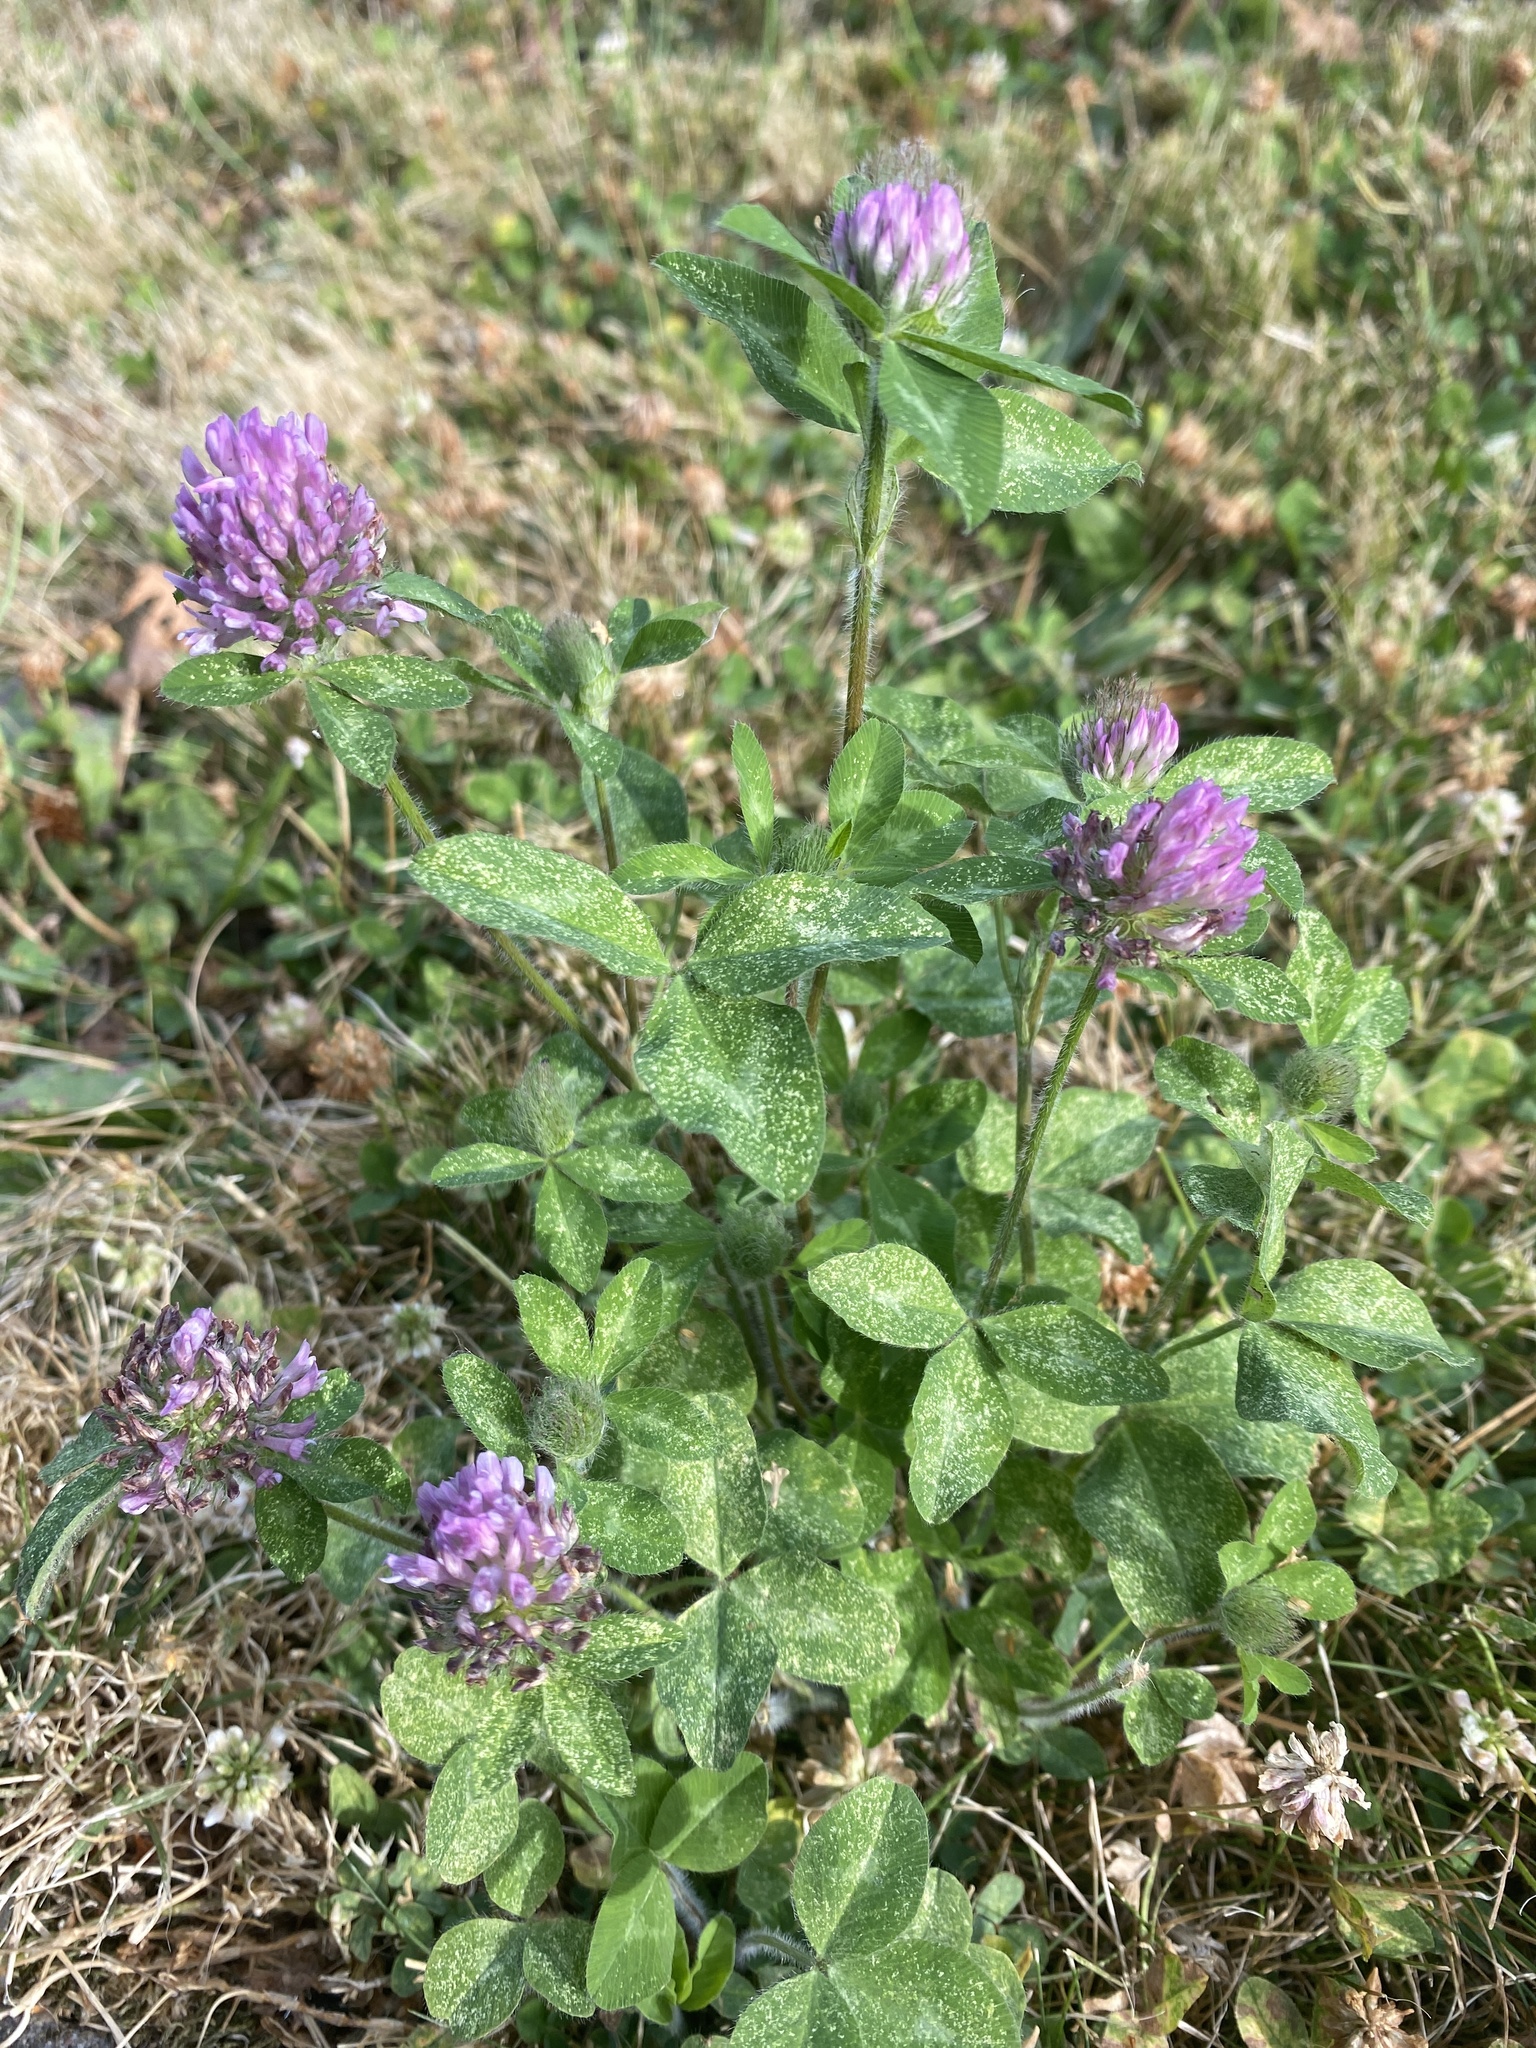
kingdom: Plantae
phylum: Tracheophyta
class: Magnoliopsida
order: Fabales
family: Fabaceae
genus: Trifolium
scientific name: Trifolium pratense
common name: Red clover
